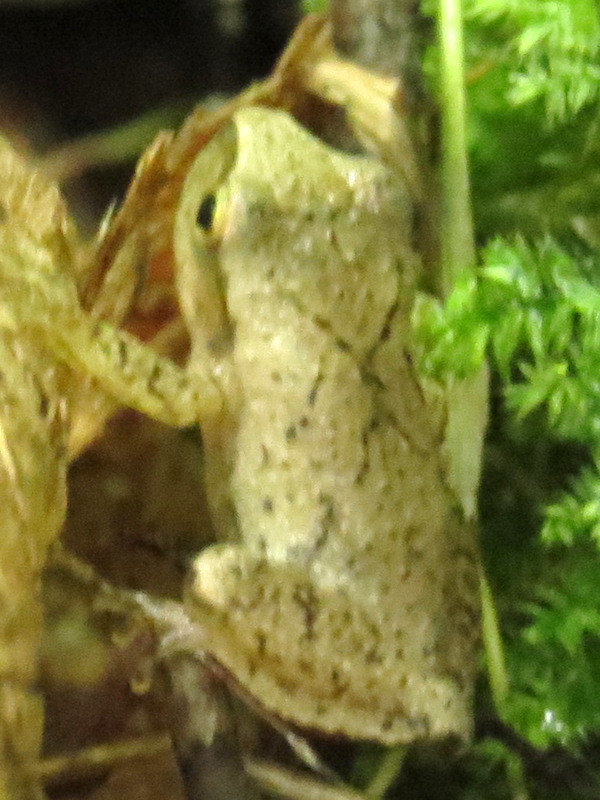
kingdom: Animalia
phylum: Chordata
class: Amphibia
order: Anura
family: Hylidae
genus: Pseudacris
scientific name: Pseudacris crucifer
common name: Spring peeper
